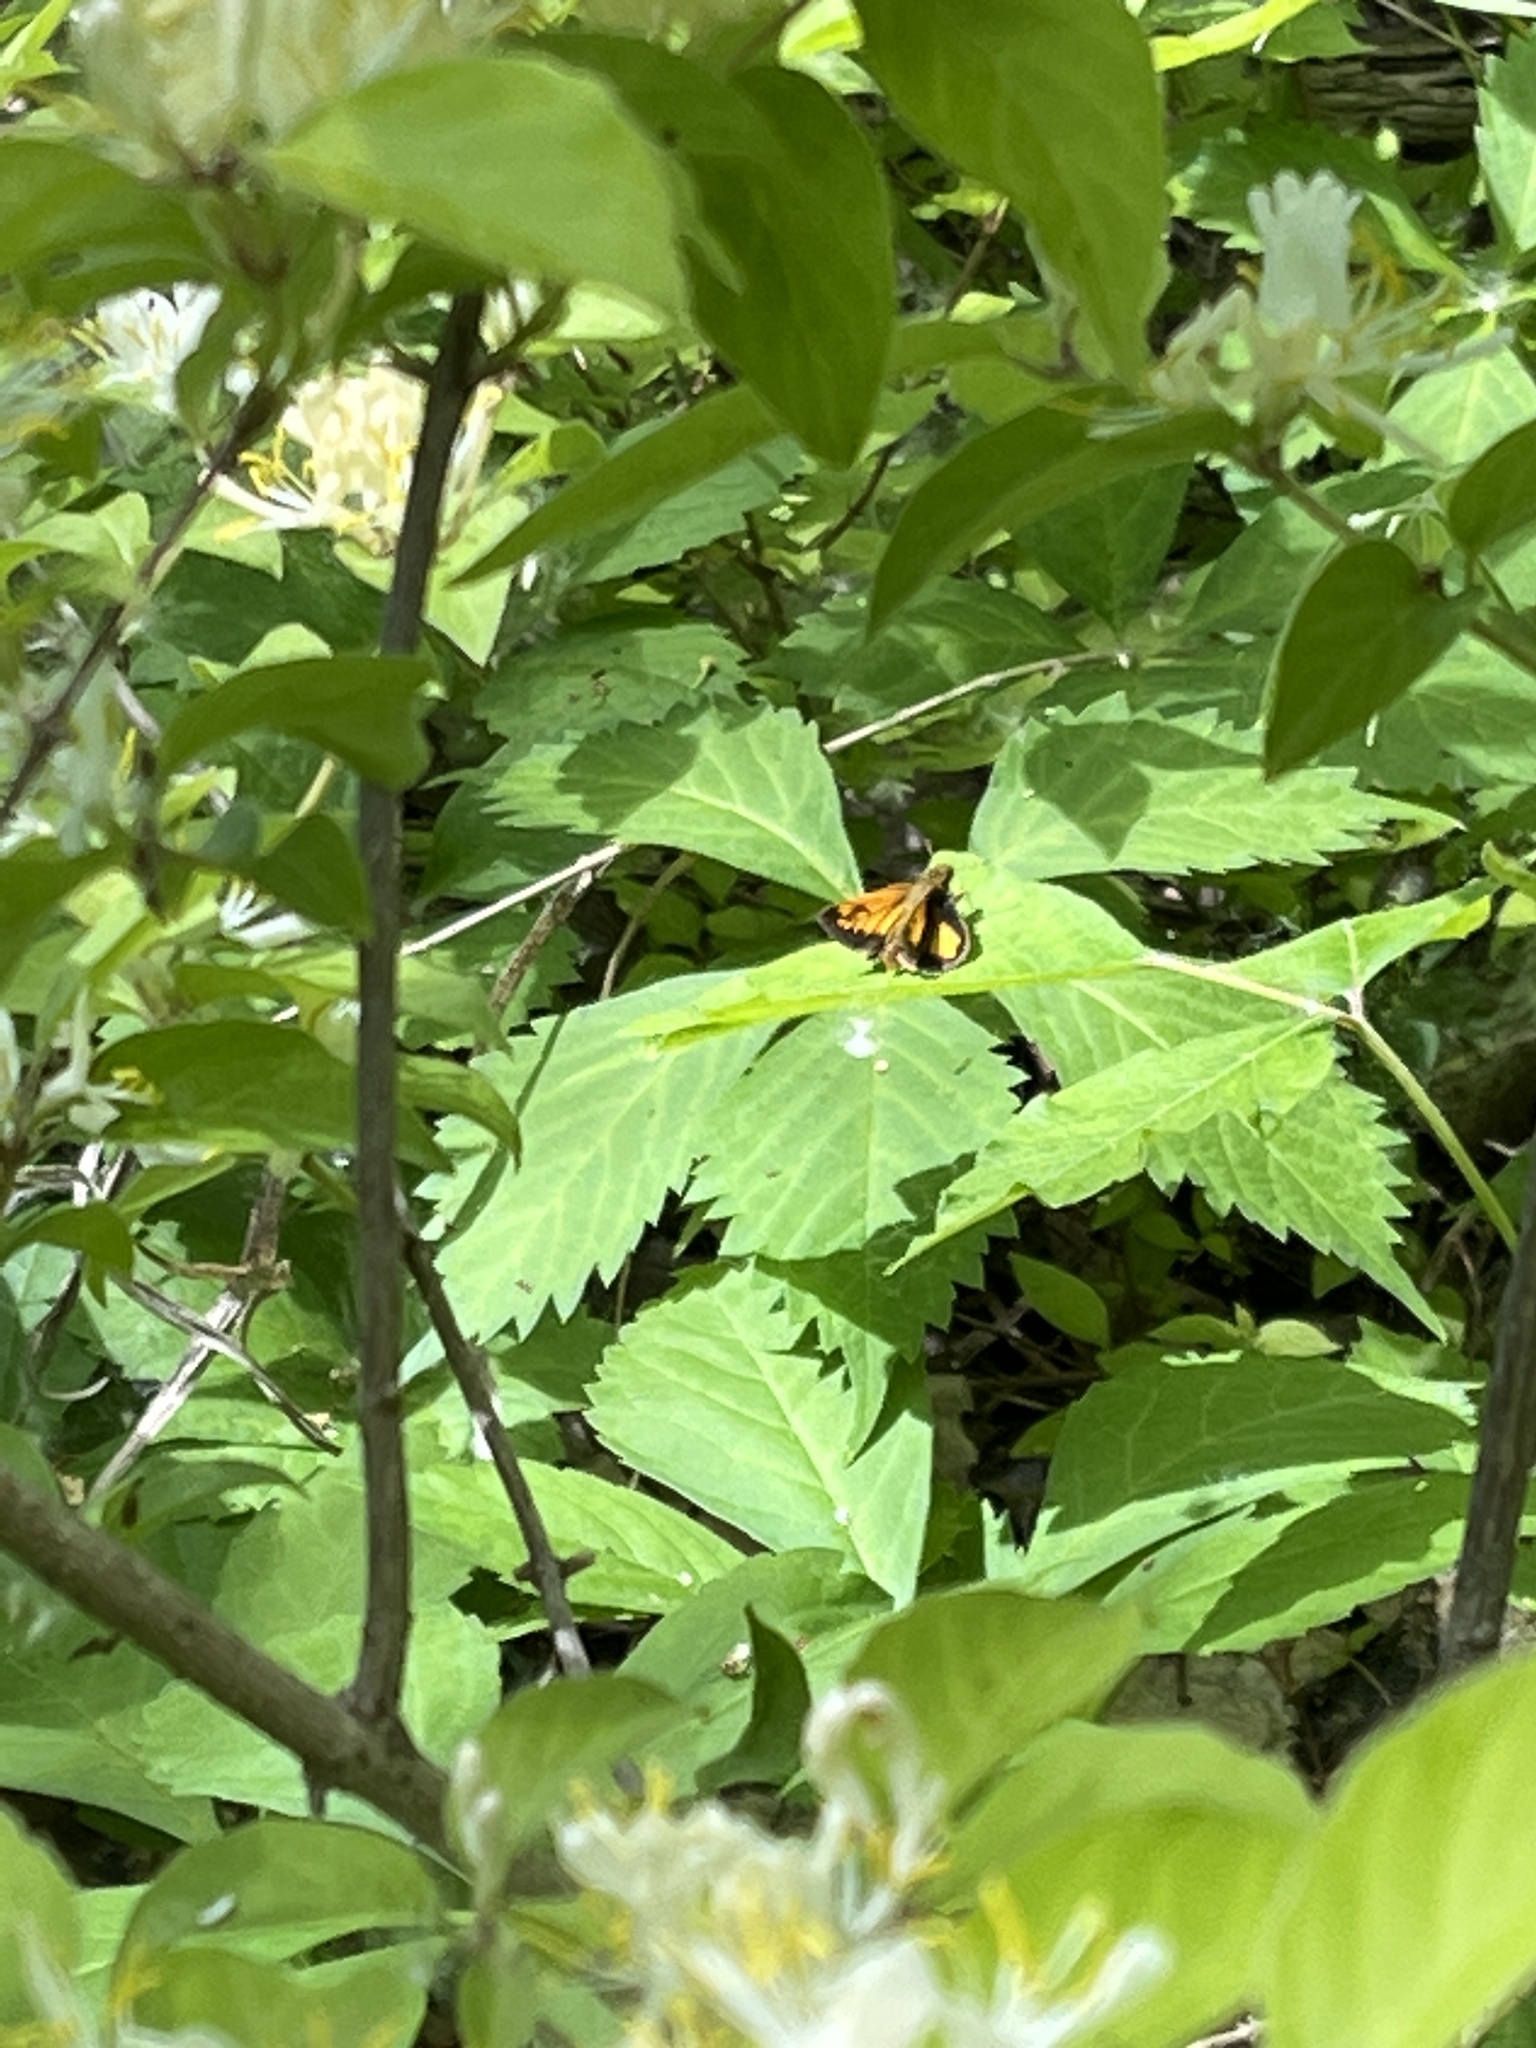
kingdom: Animalia
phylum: Arthropoda
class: Insecta
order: Lepidoptera
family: Hesperiidae
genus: Lon
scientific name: Lon zabulon
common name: Zabulon skipper
